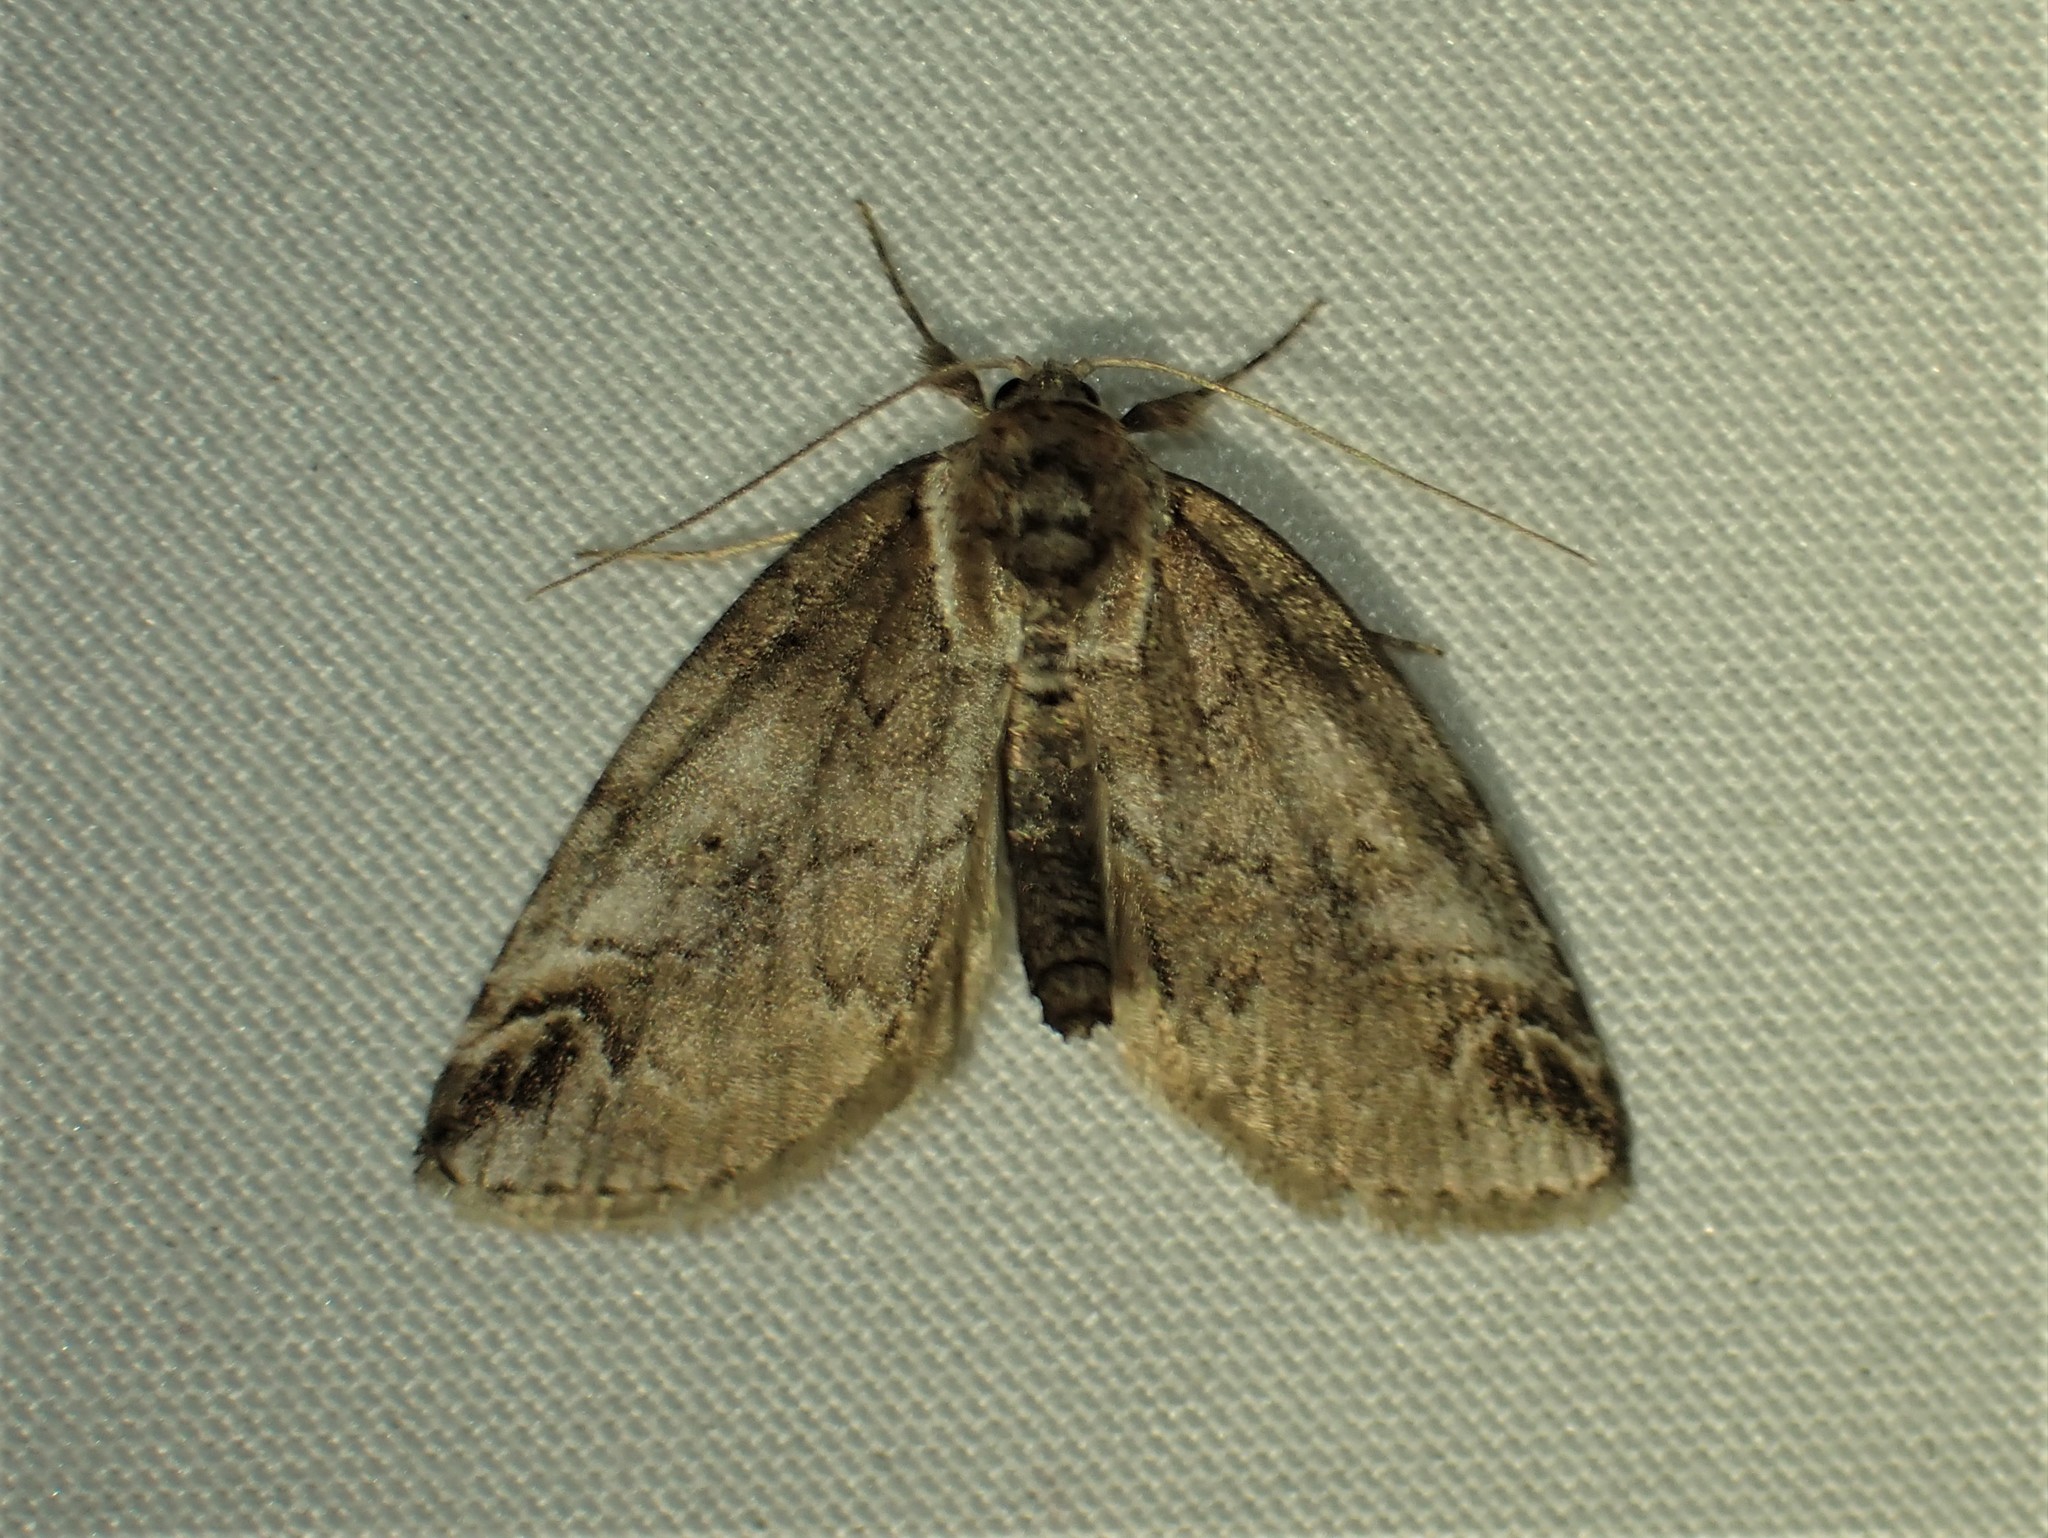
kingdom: Animalia
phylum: Arthropoda
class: Insecta
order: Lepidoptera
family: Nolidae
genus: Baileya
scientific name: Baileya ophthalmica
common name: Eyed baileya moth
